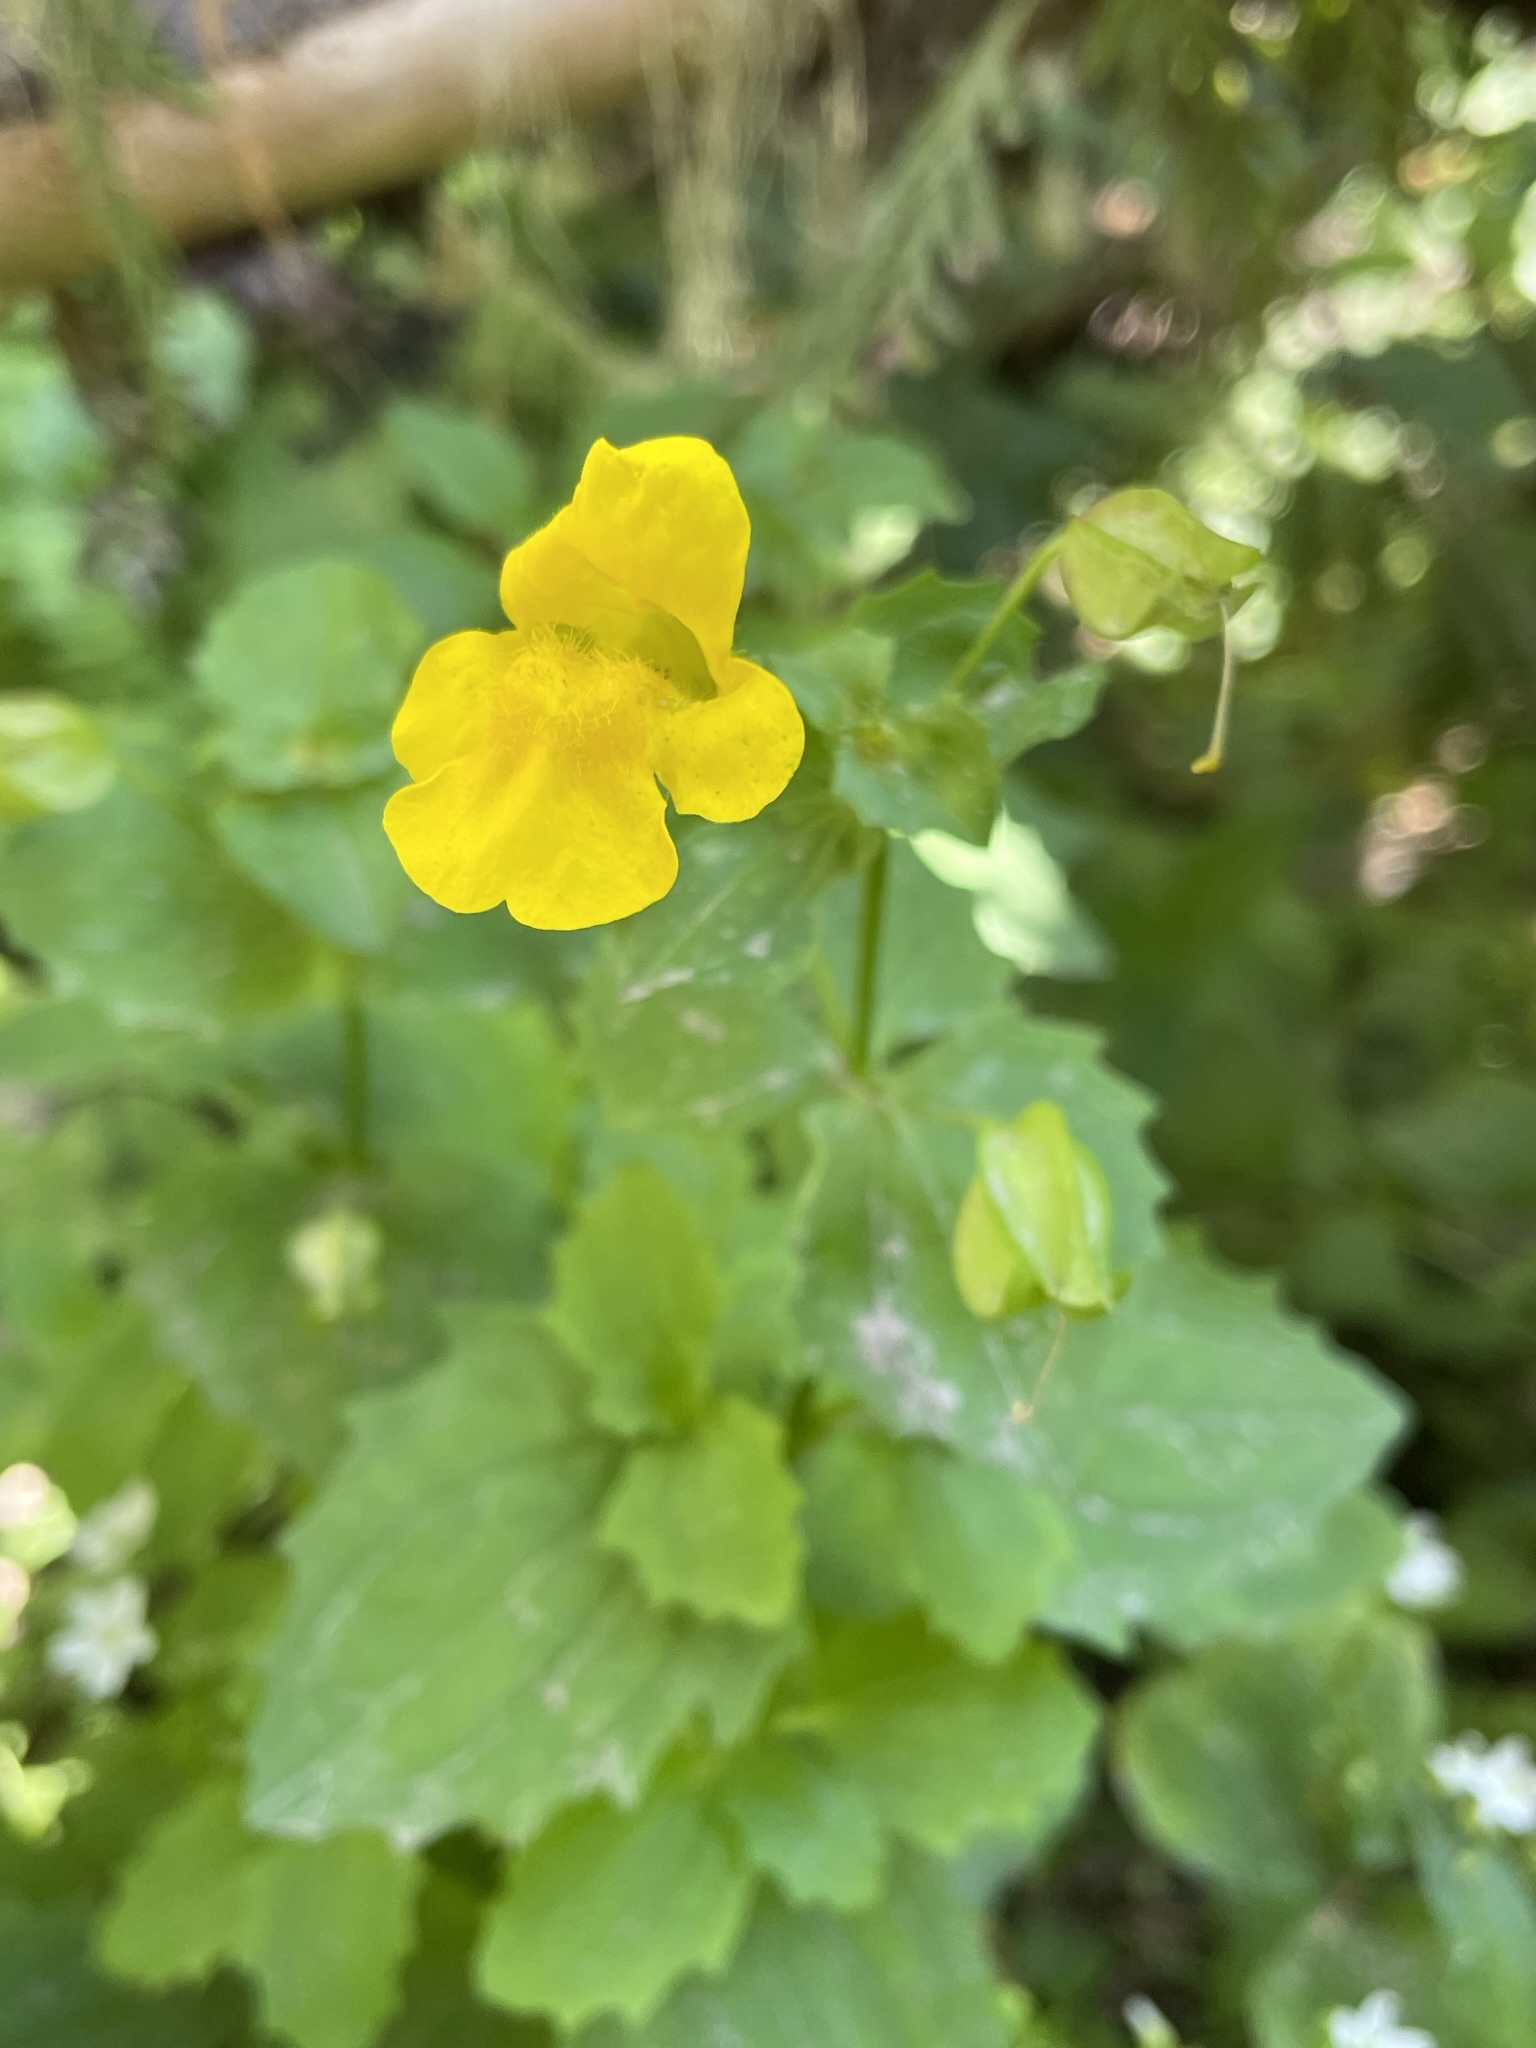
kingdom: Plantae
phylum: Tracheophyta
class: Magnoliopsida
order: Lamiales
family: Phrymaceae
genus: Erythranthe
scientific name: Erythranthe decora
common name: Mannered monkeyflower
